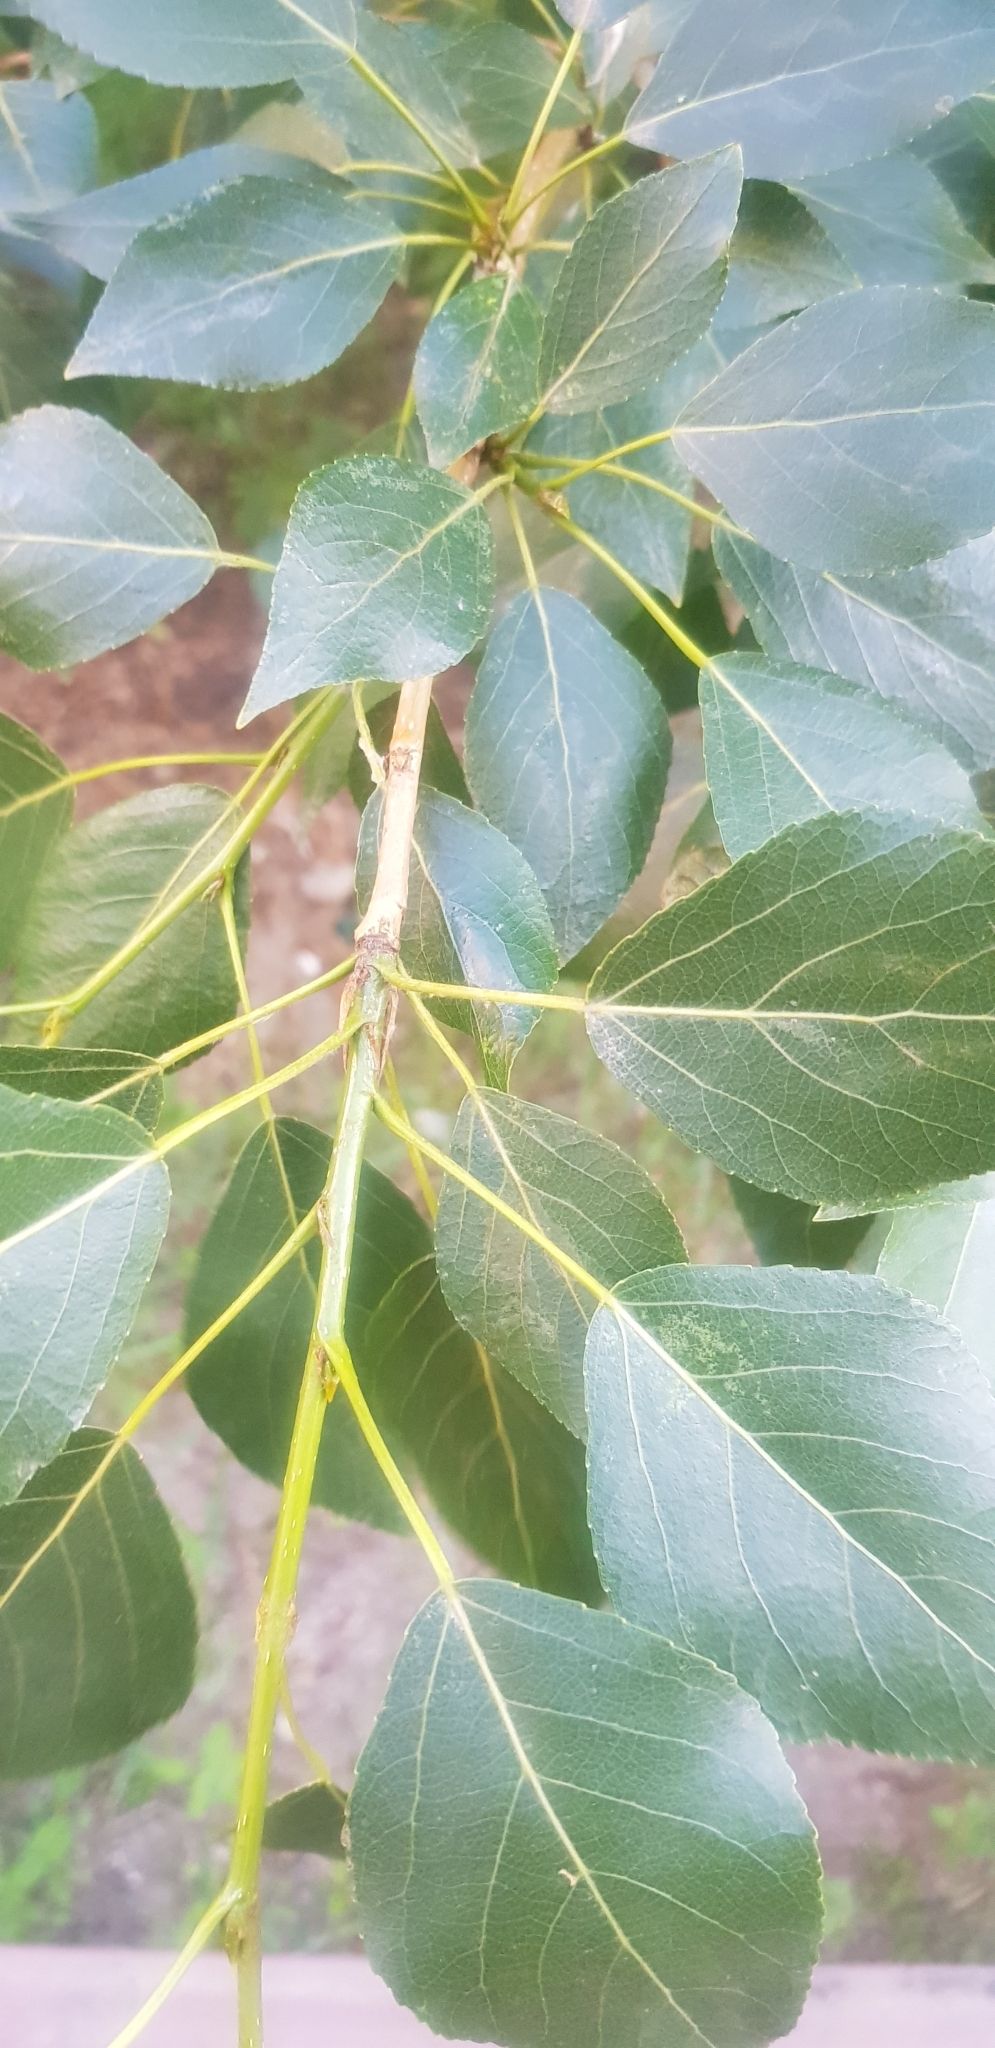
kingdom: Plantae
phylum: Tracheophyta
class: Magnoliopsida
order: Malpighiales
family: Salicaceae
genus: Populus
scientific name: Populus laurifolia
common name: Laurel-leaf poplar
